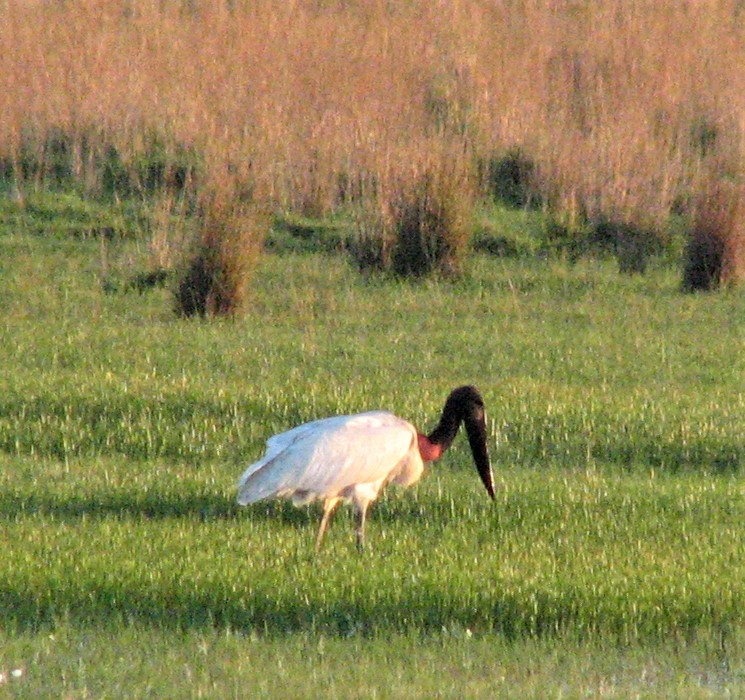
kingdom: Animalia
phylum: Chordata
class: Aves
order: Ciconiiformes
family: Ciconiidae
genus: Jabiru
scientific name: Jabiru mycteria
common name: Jabiru
